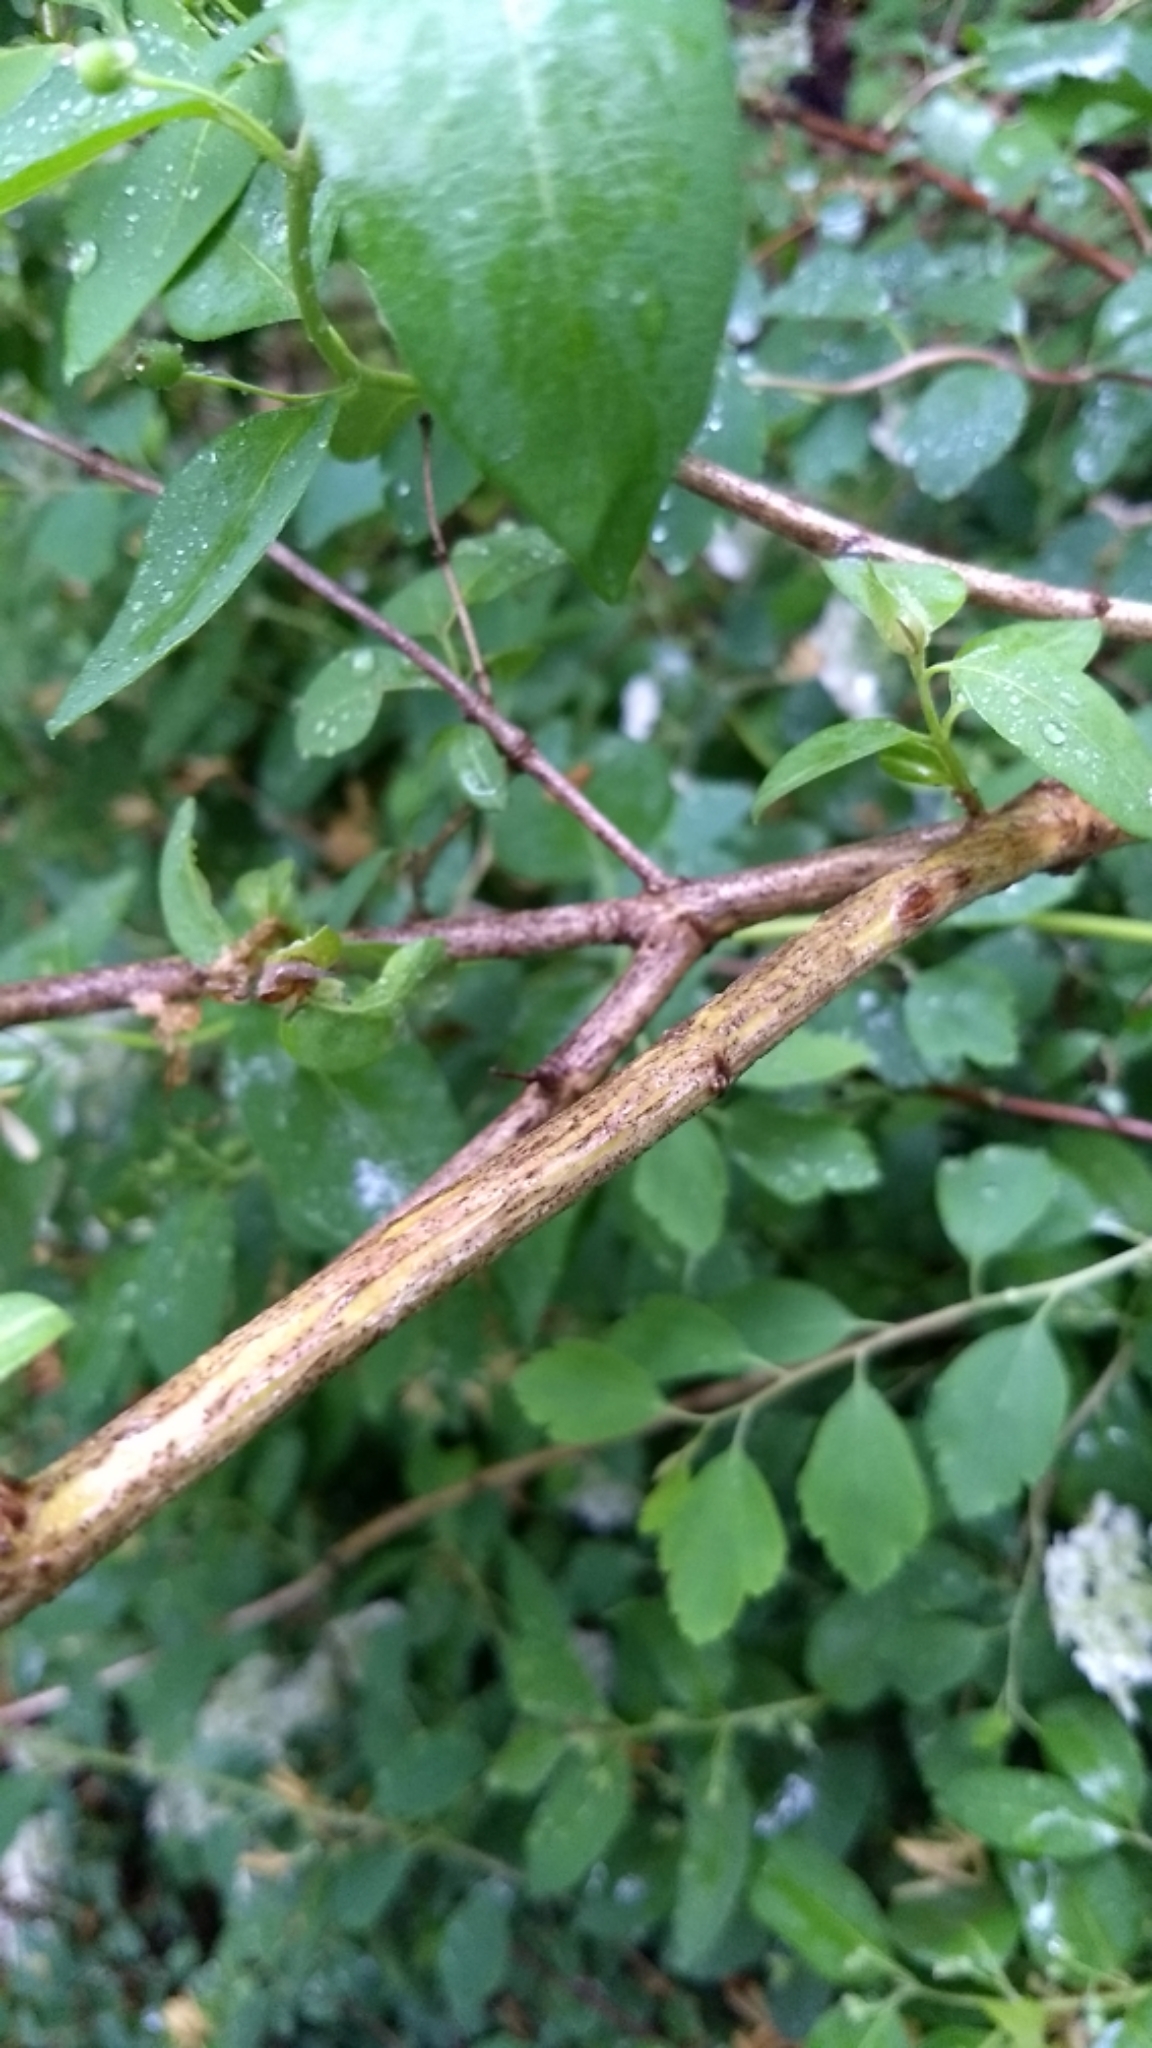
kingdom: Plantae
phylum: Tracheophyta
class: Magnoliopsida
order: Dipsacales
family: Caprifoliaceae
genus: Lonicera
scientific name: Lonicera tatarica
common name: Tatarian honeysuckle
